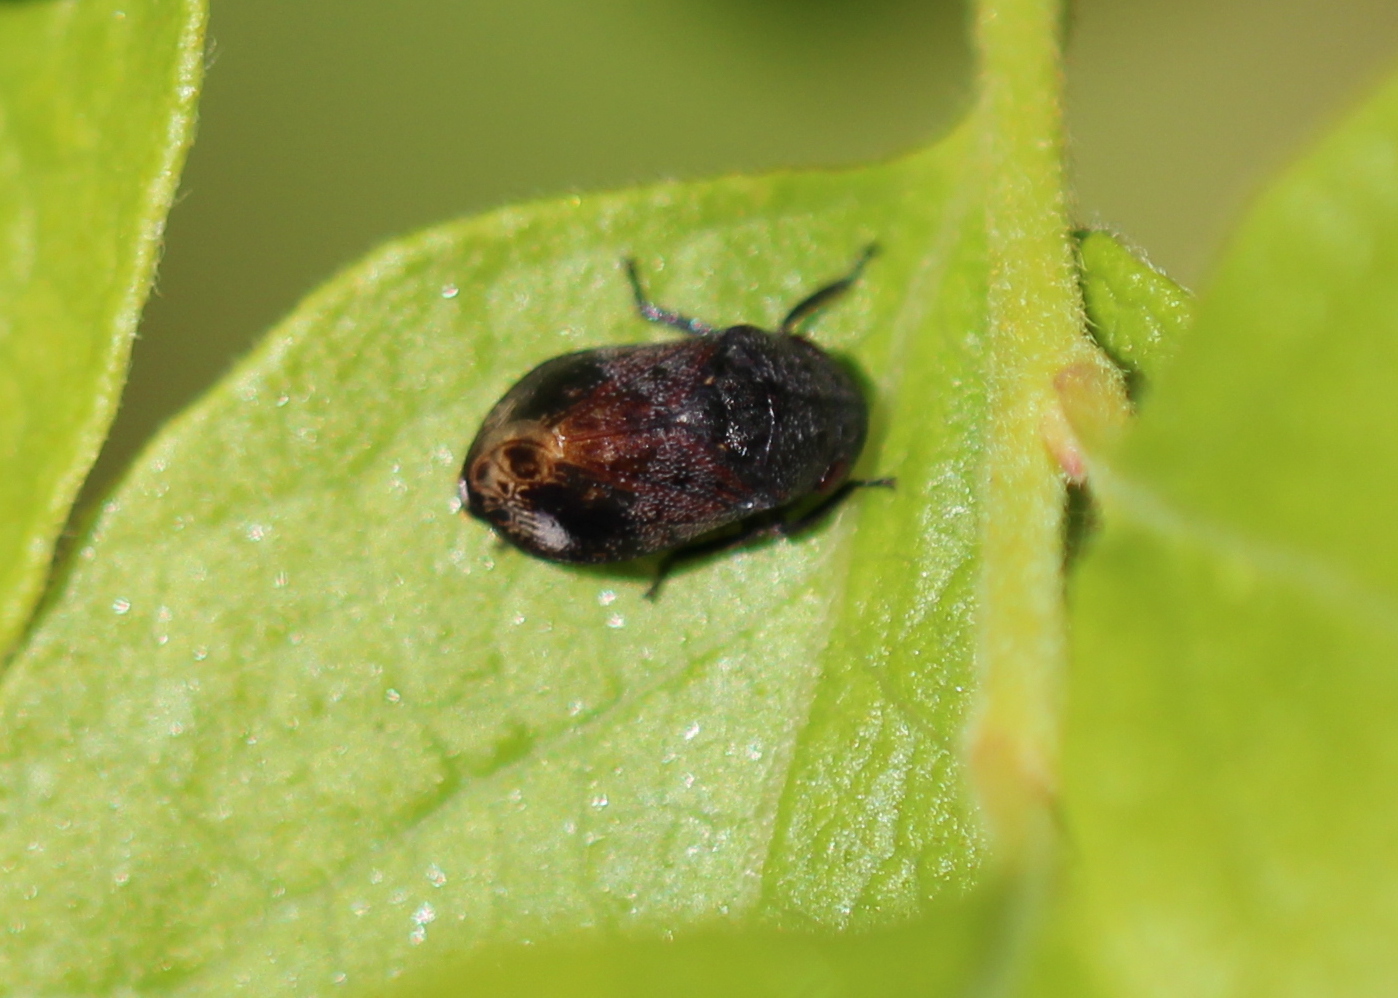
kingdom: Animalia
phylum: Arthropoda
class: Insecta
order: Hemiptera
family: Cicadellidae
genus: Penthimia
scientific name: Penthimia americana
